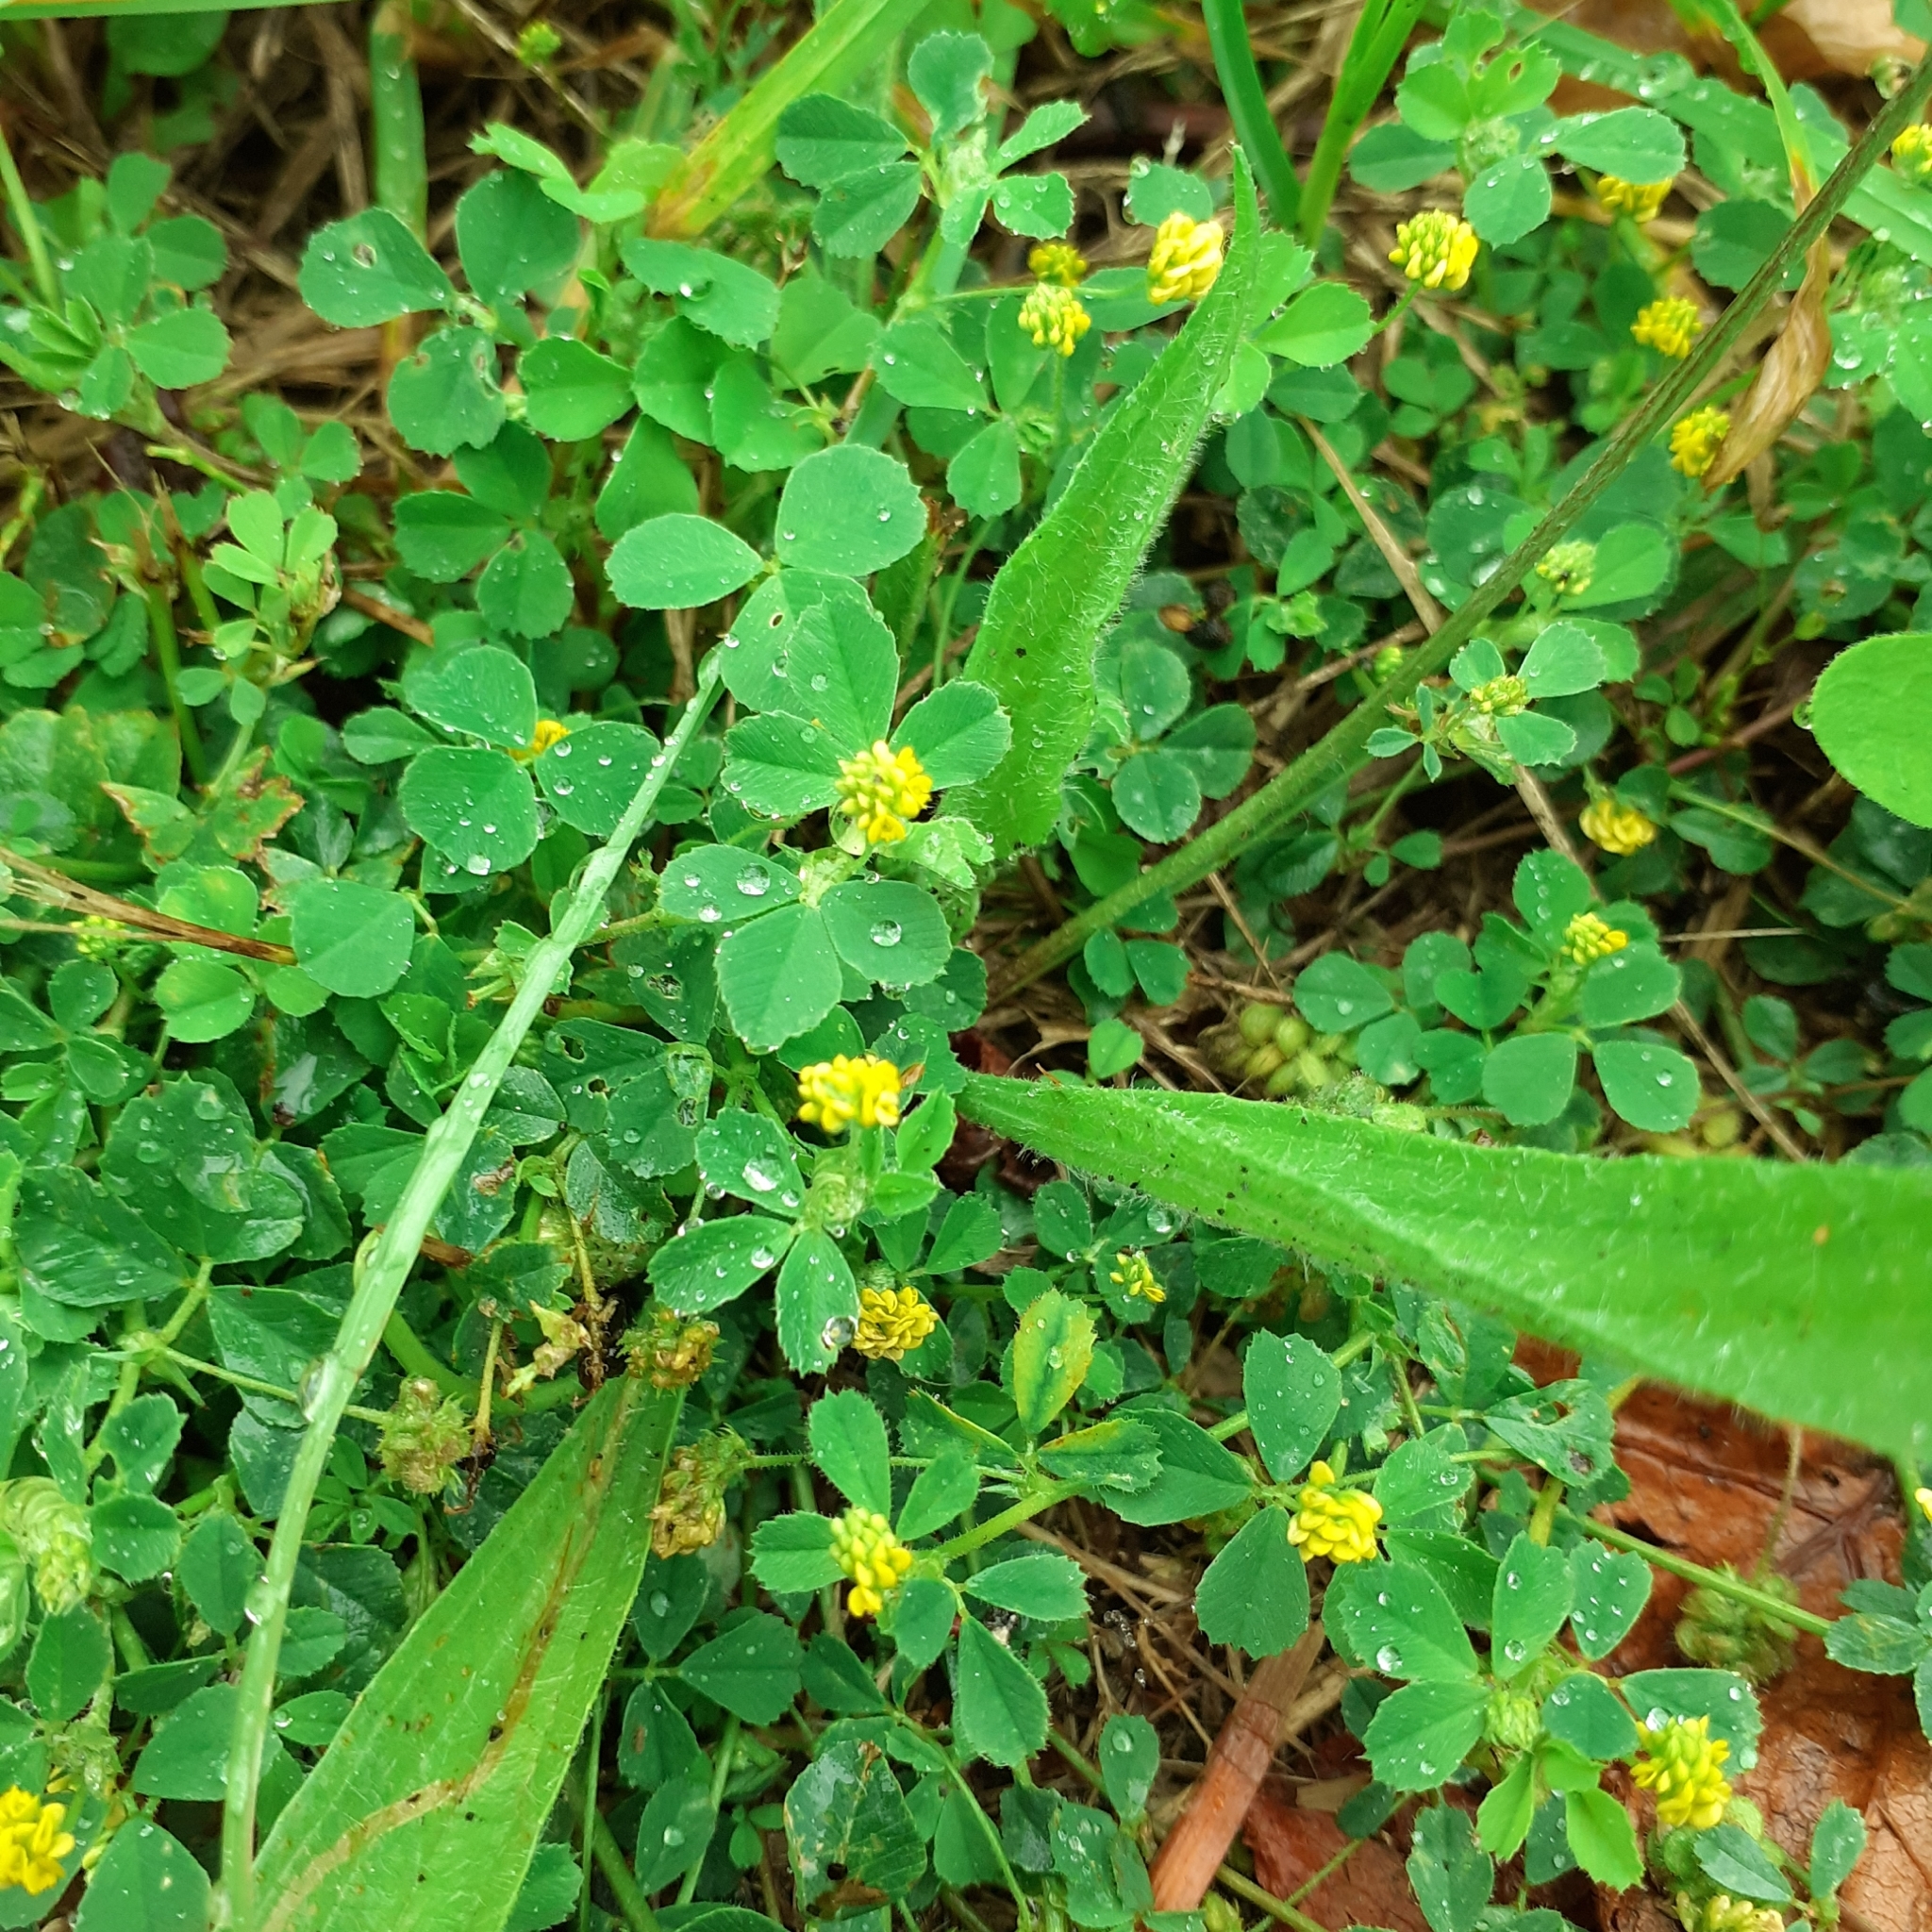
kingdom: Plantae
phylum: Tracheophyta
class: Magnoliopsida
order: Fabales
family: Fabaceae
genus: Medicago
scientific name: Medicago lupulina
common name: Black medick
